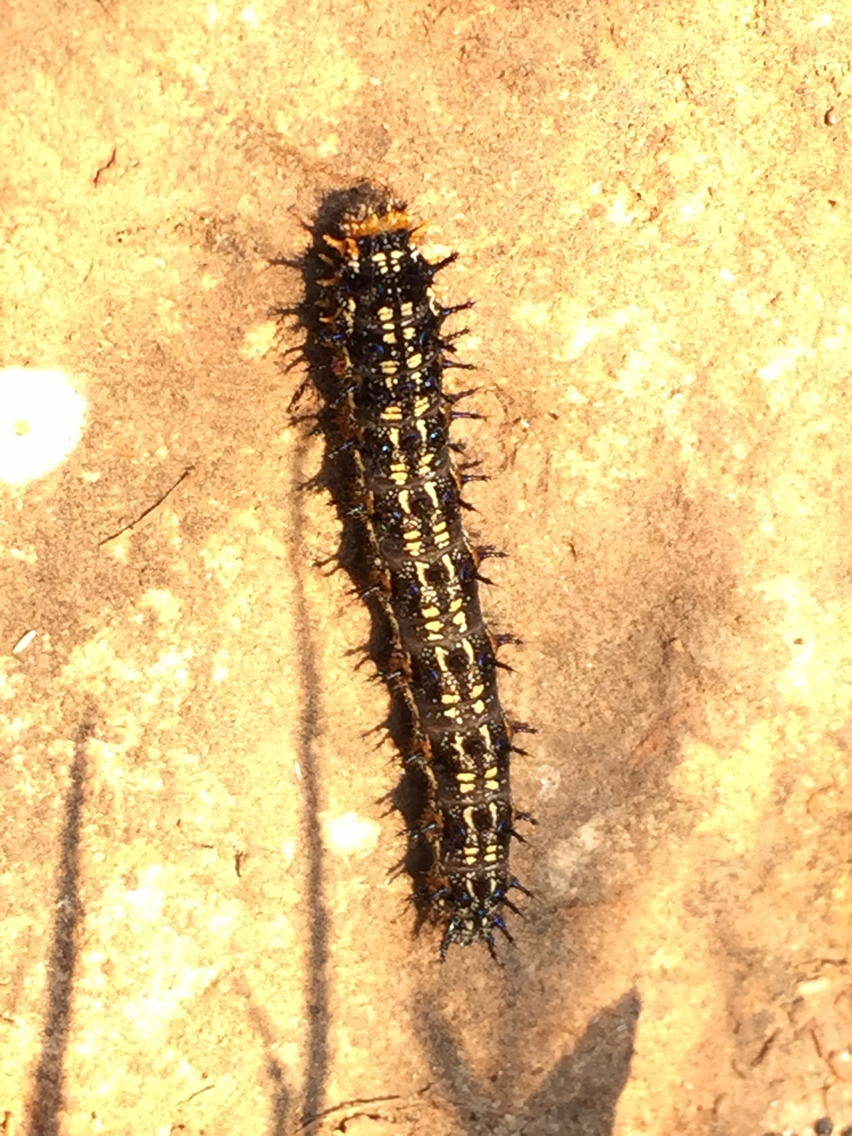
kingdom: Animalia
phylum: Arthropoda
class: Insecta
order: Lepidoptera
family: Nymphalidae
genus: Junonia
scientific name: Junonia grisea
